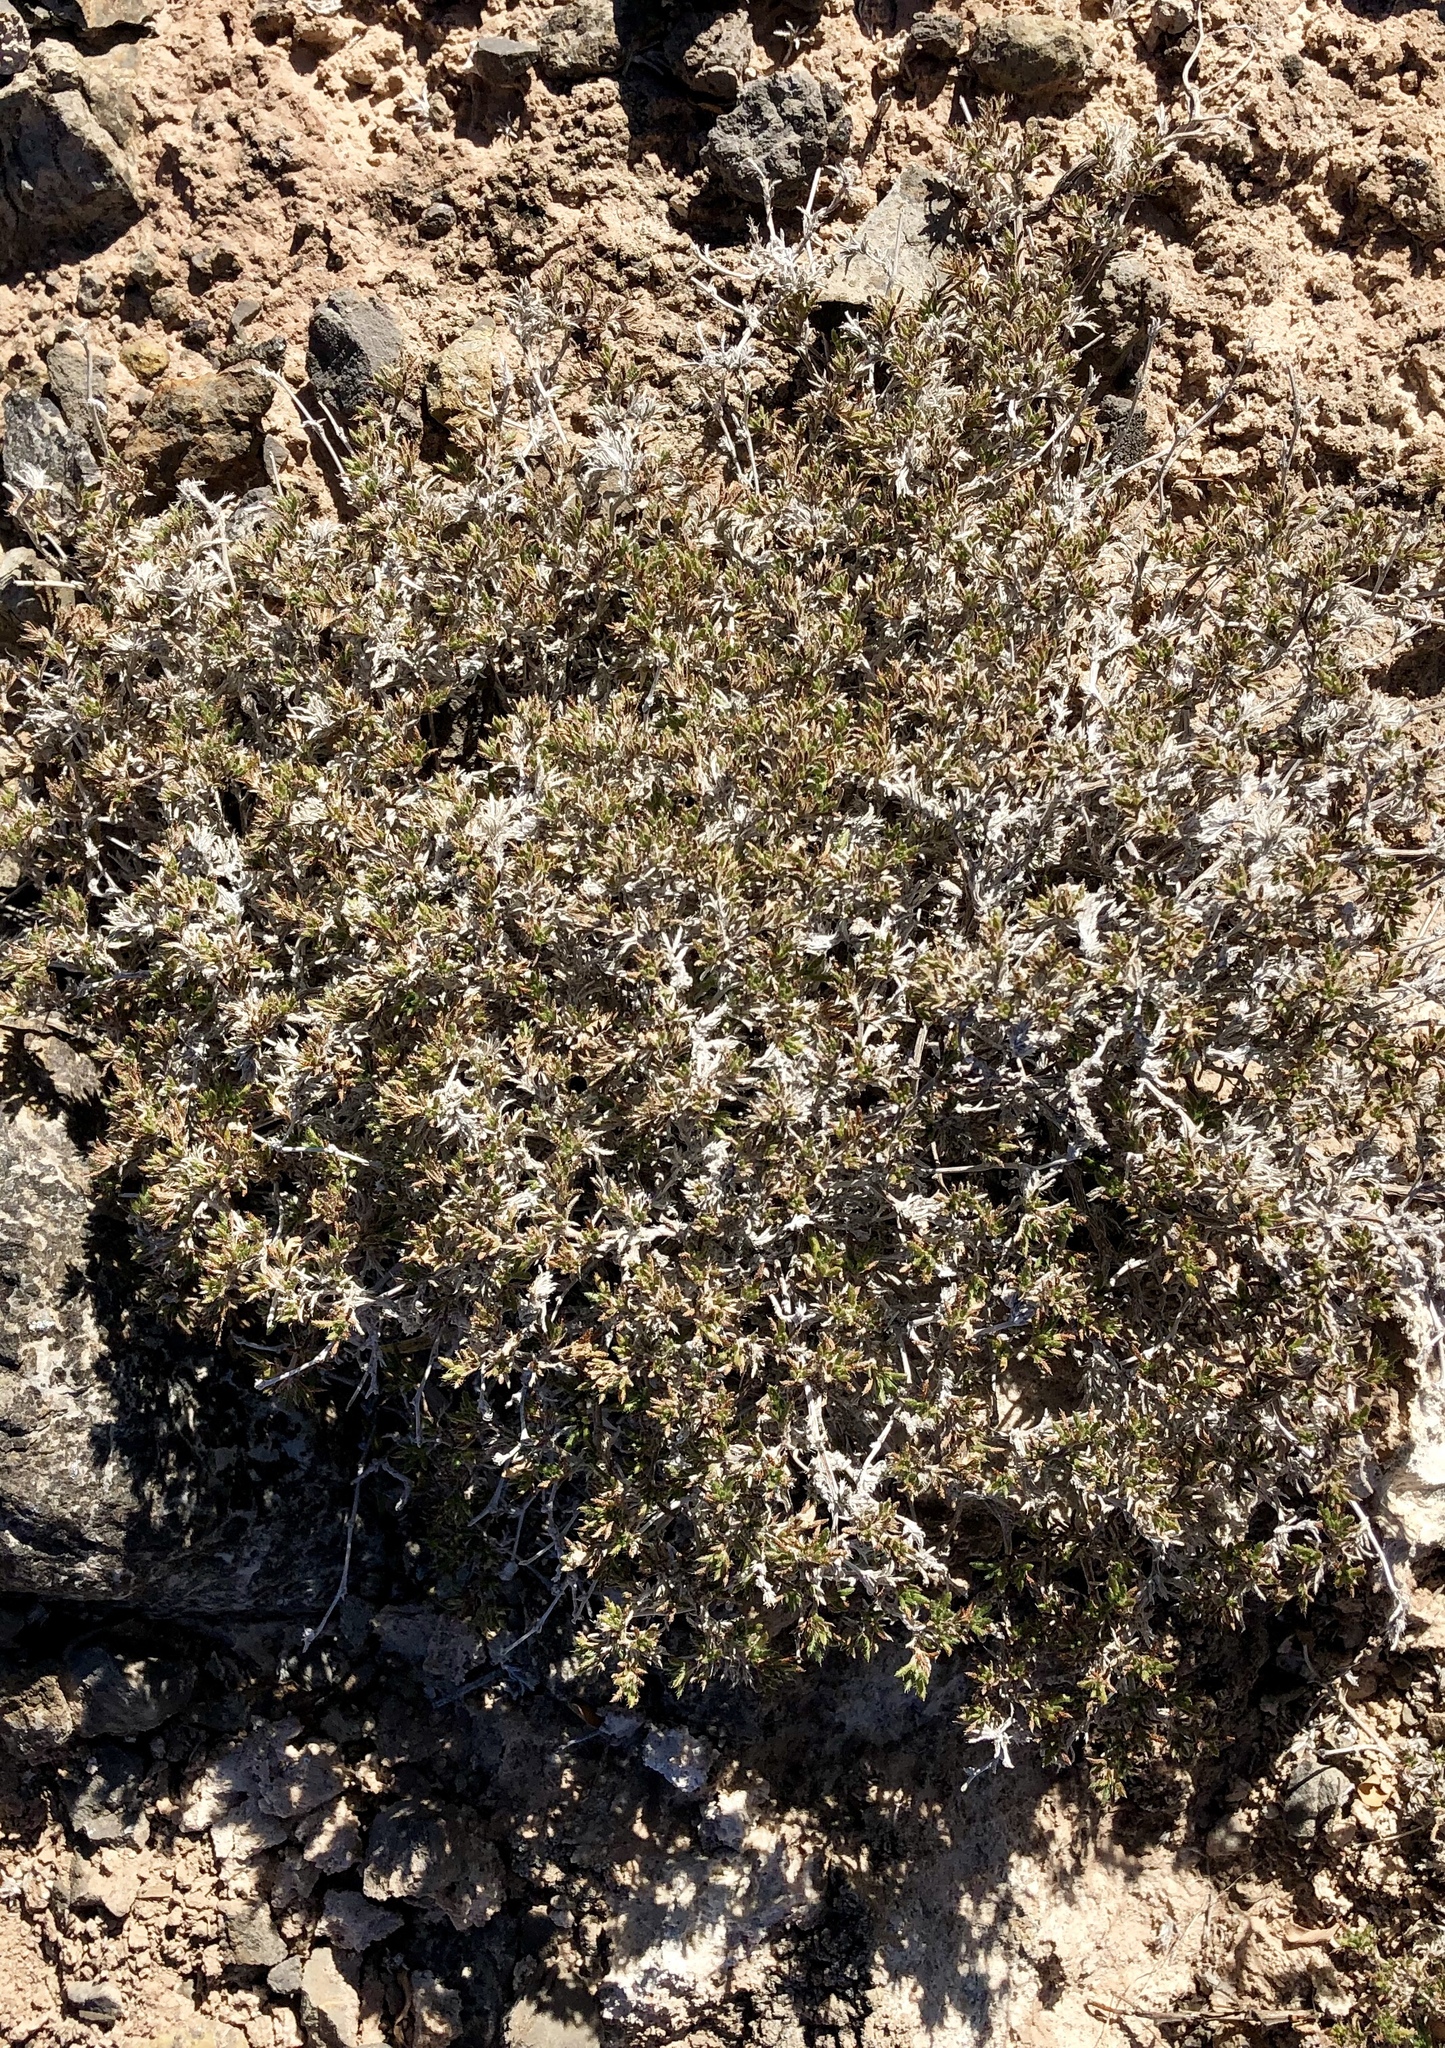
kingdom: Plantae
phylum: Tracheophyta
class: Magnoliopsida
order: Boraginales
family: Ehretiaceae
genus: Tiquilia
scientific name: Tiquilia hispidissima
